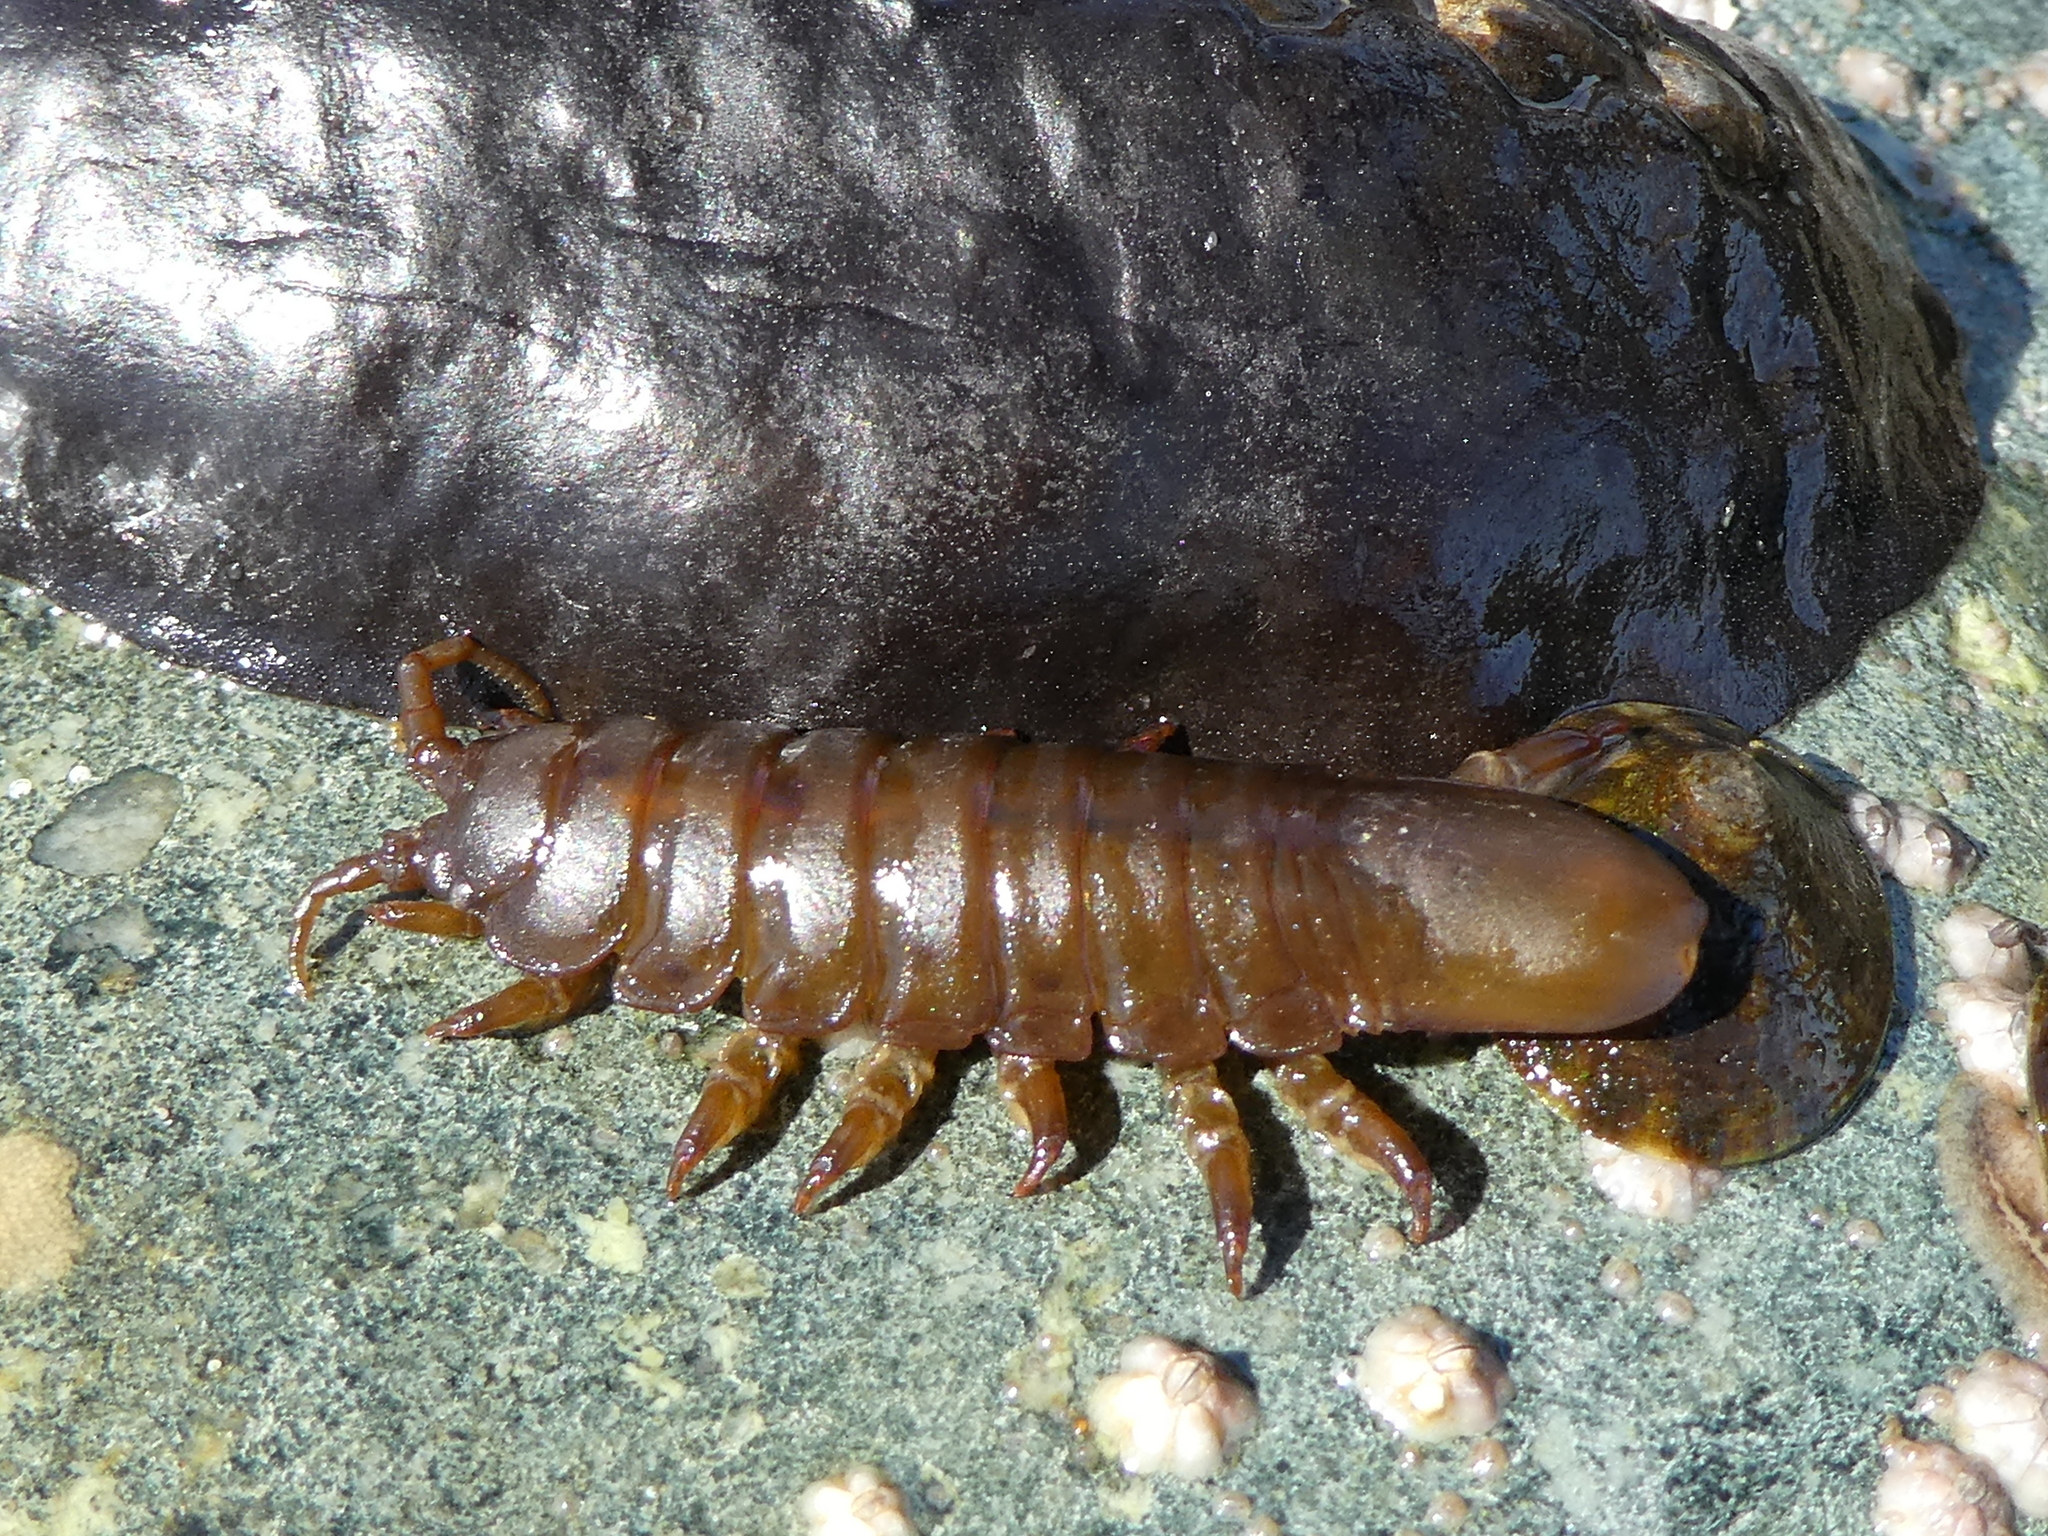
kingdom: Animalia
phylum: Arthropoda
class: Malacostraca
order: Isopoda
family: Idoteidae
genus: Pentidotea
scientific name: Pentidotea wosnesenskii
